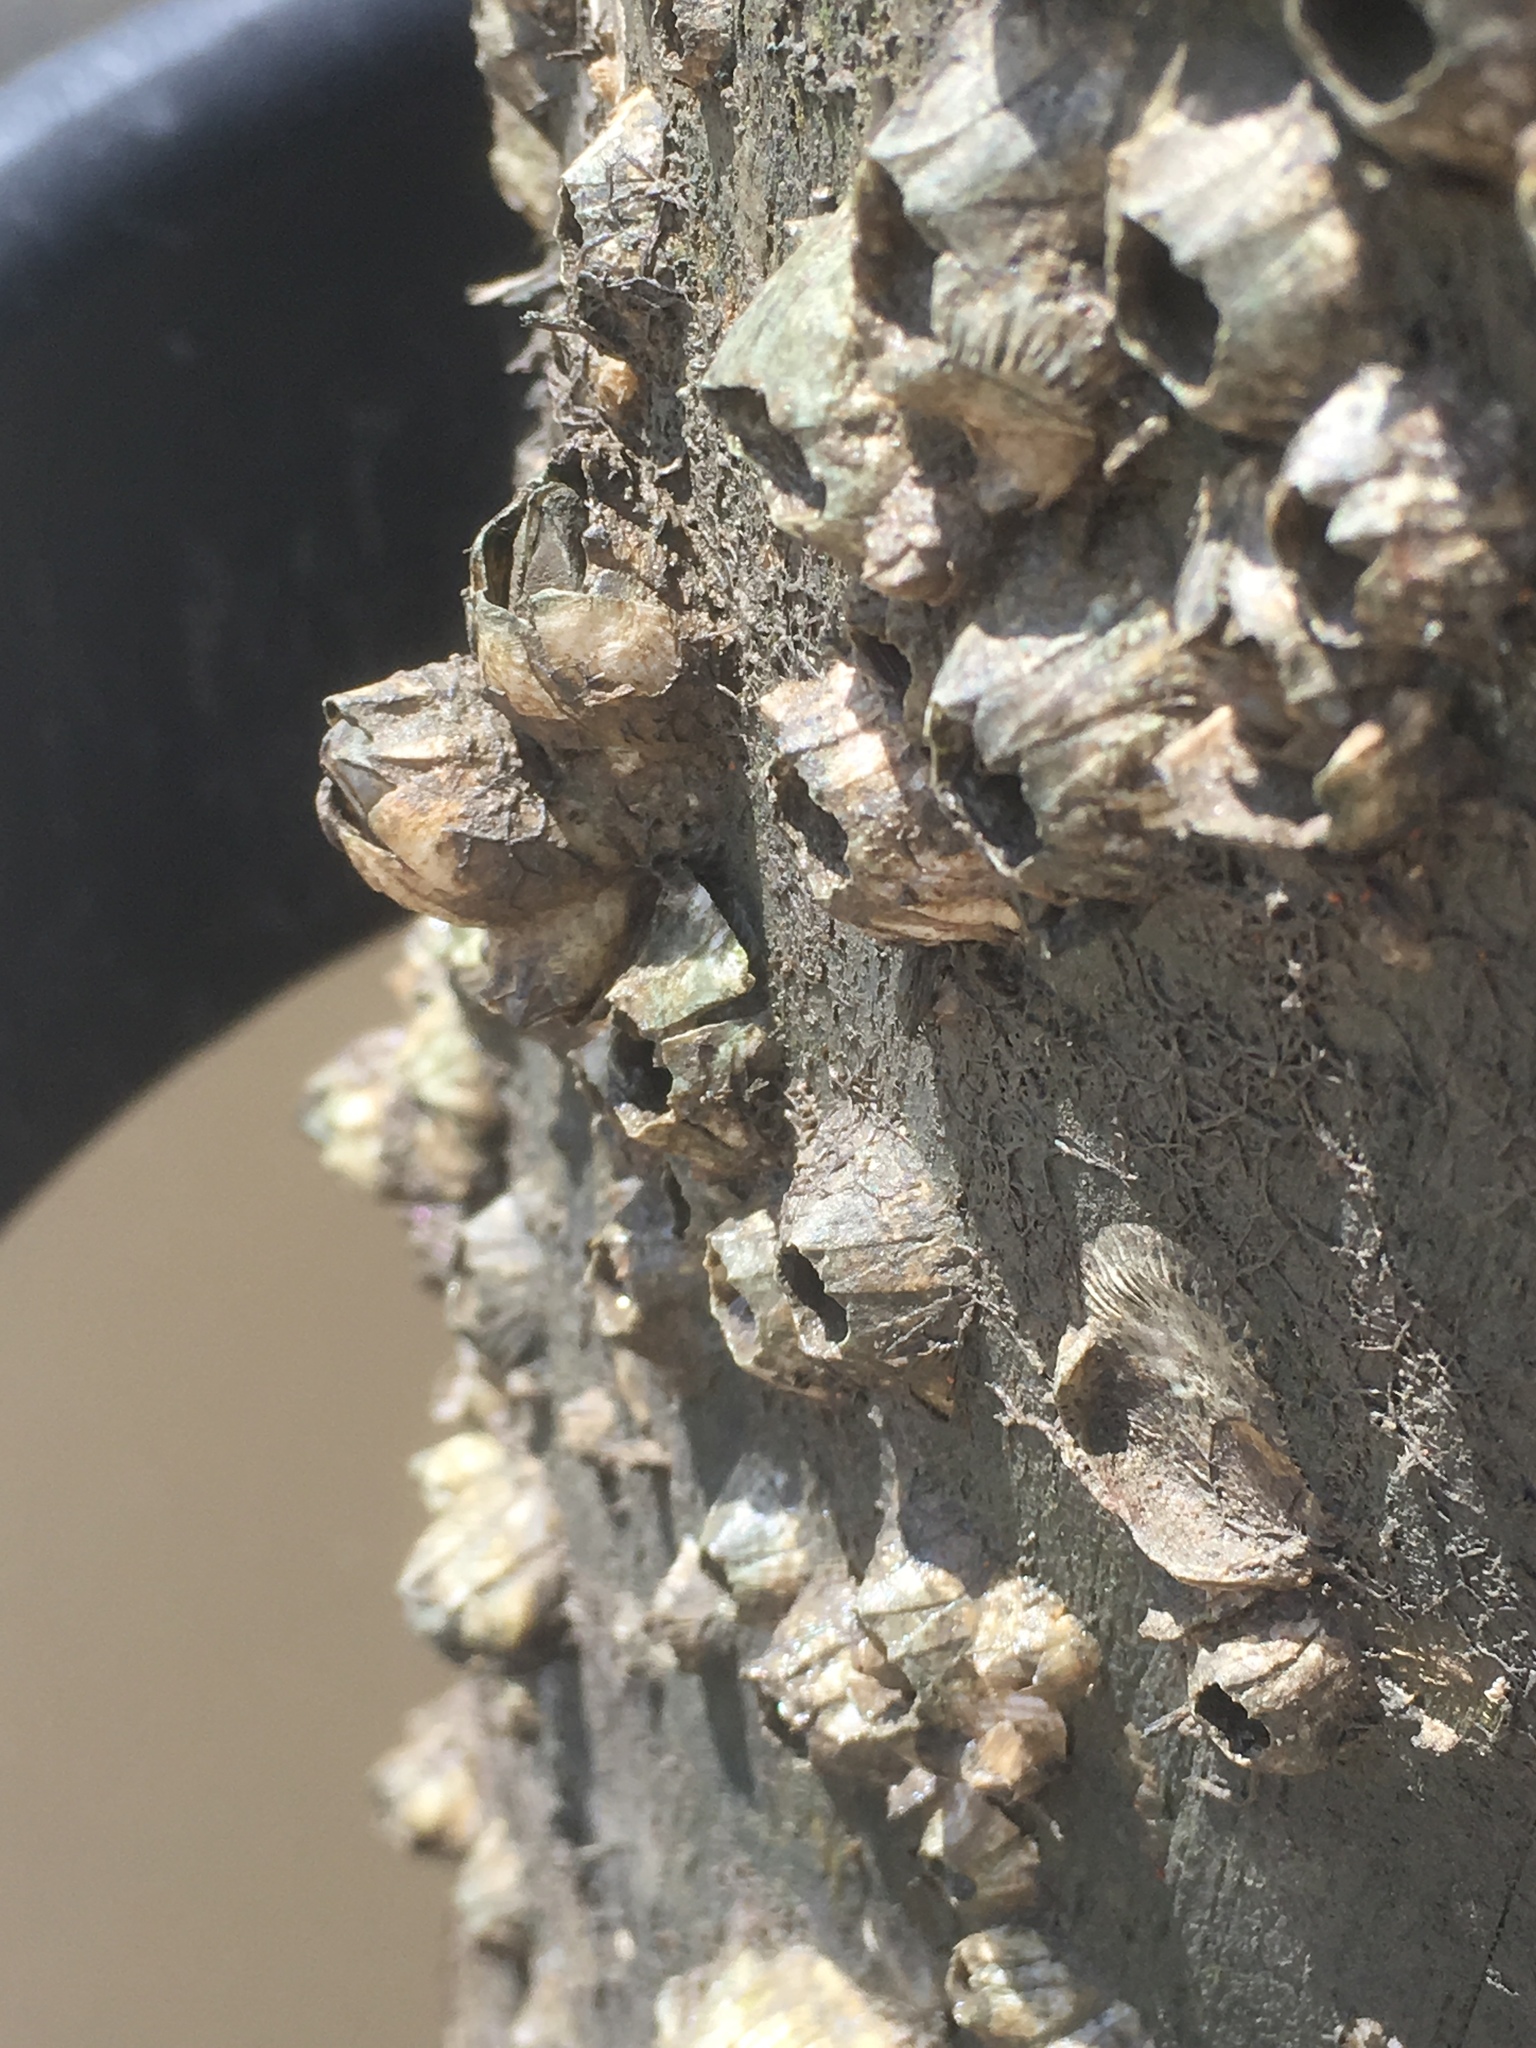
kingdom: Animalia
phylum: Arthropoda
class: Maxillopoda
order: Sessilia
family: Balanidae
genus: Amphibalanus
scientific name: Amphibalanus amphitrite
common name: Striped acorn barnacle
